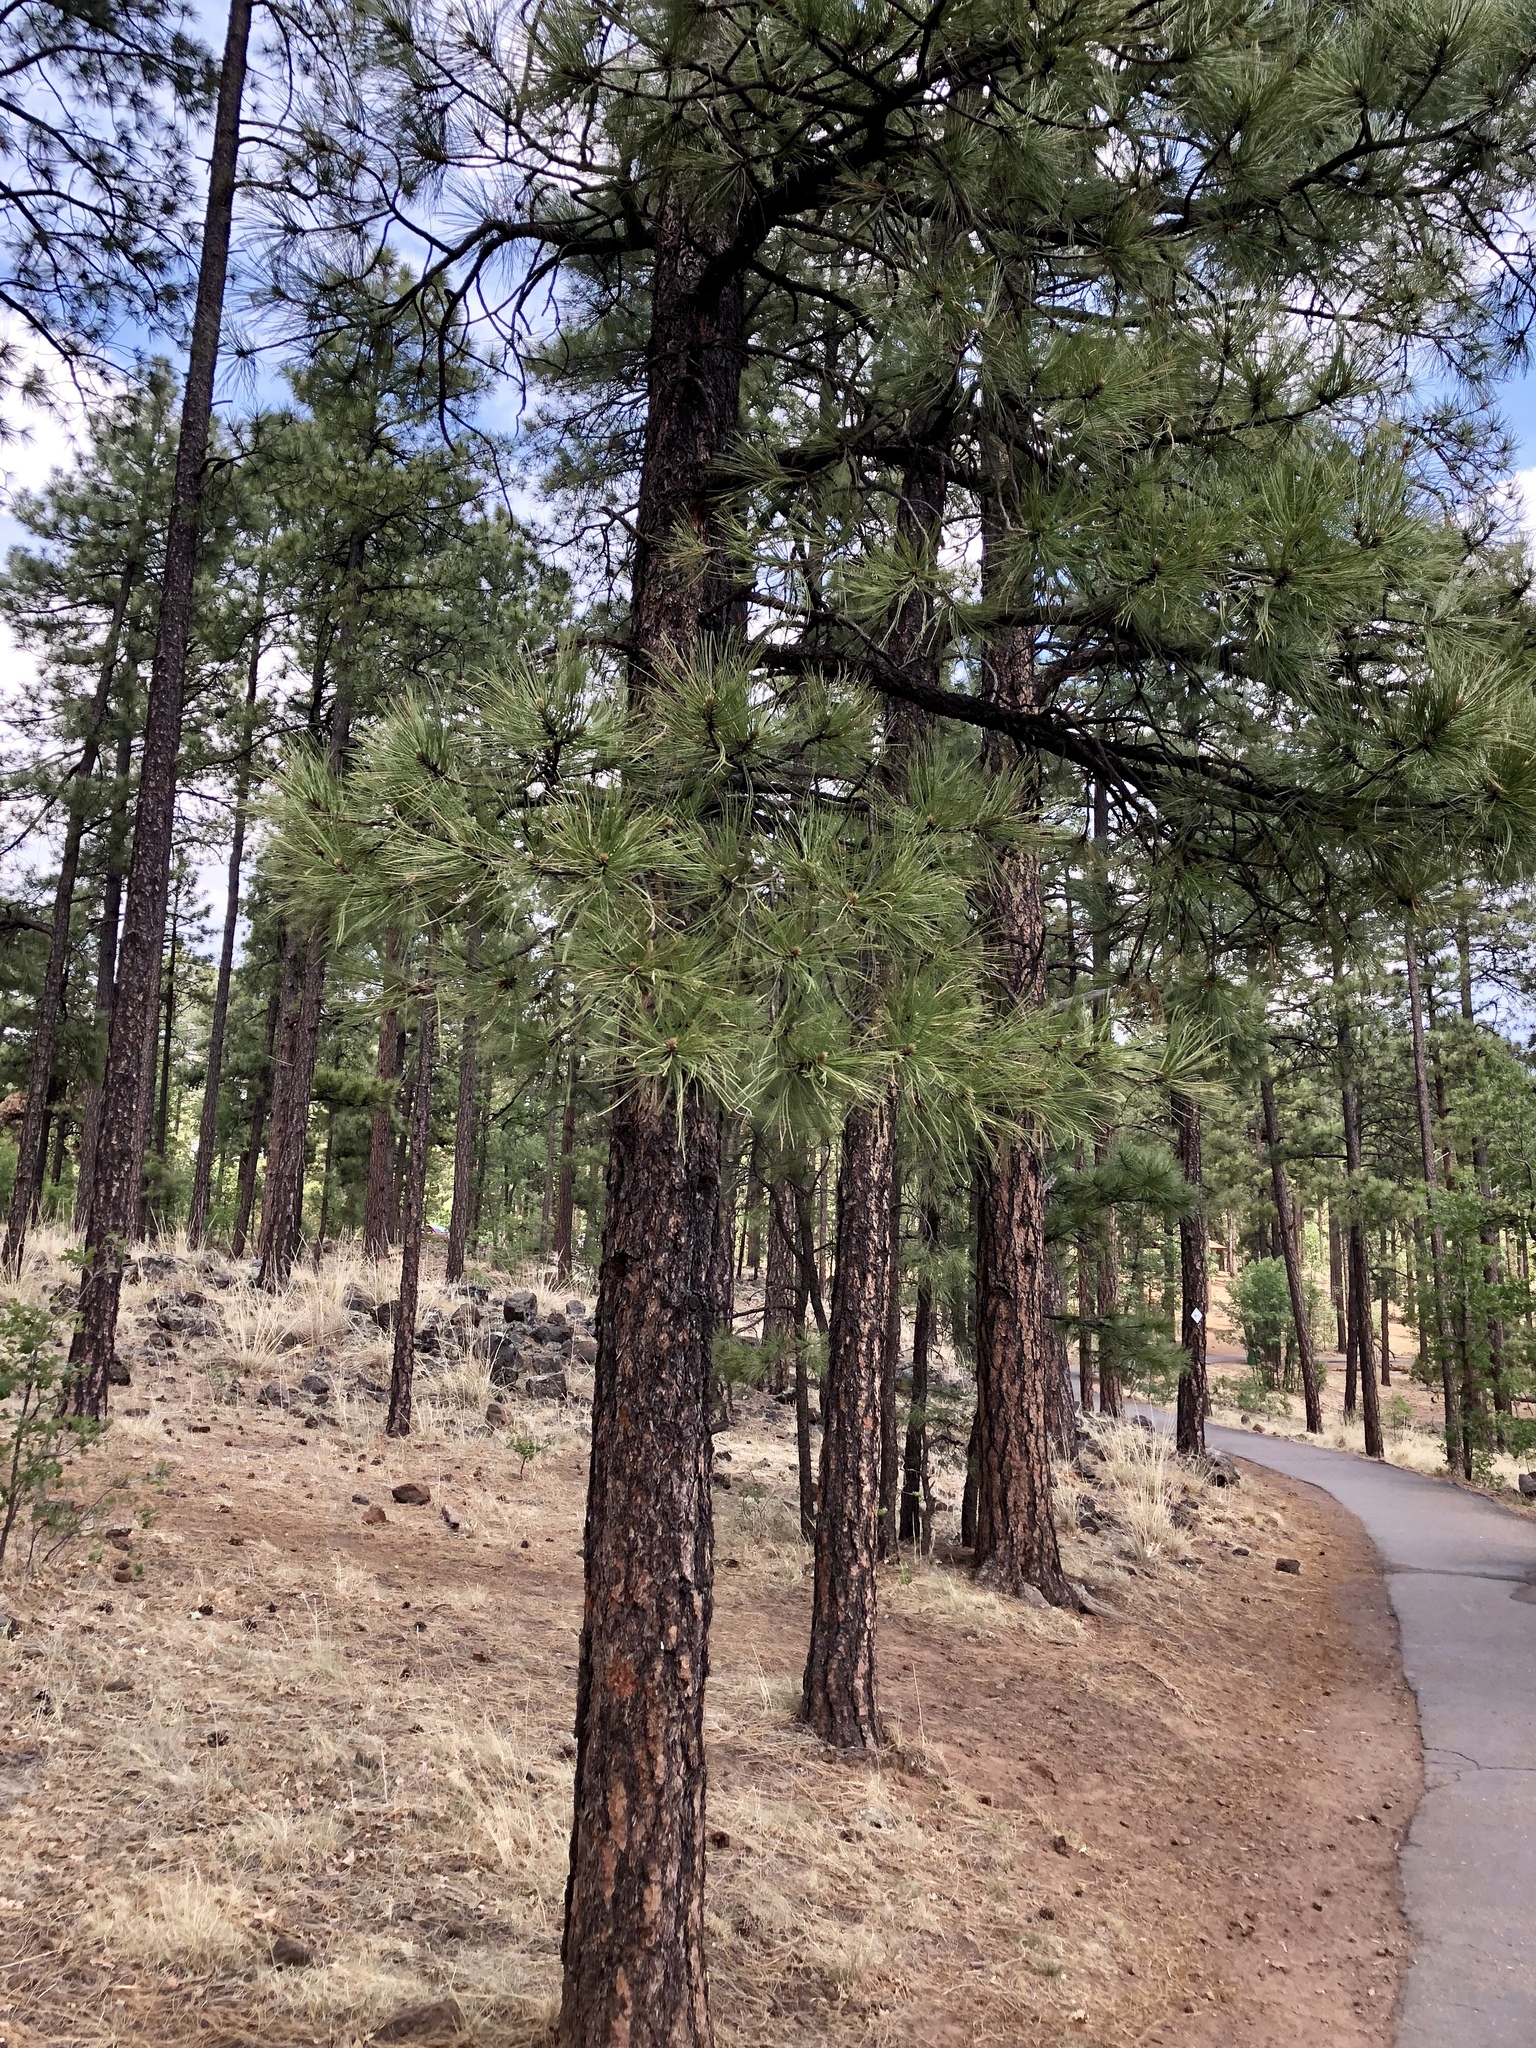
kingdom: Plantae
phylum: Tracheophyta
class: Pinopsida
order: Pinales
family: Pinaceae
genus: Pinus
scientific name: Pinus ponderosa
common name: Western yellow-pine
